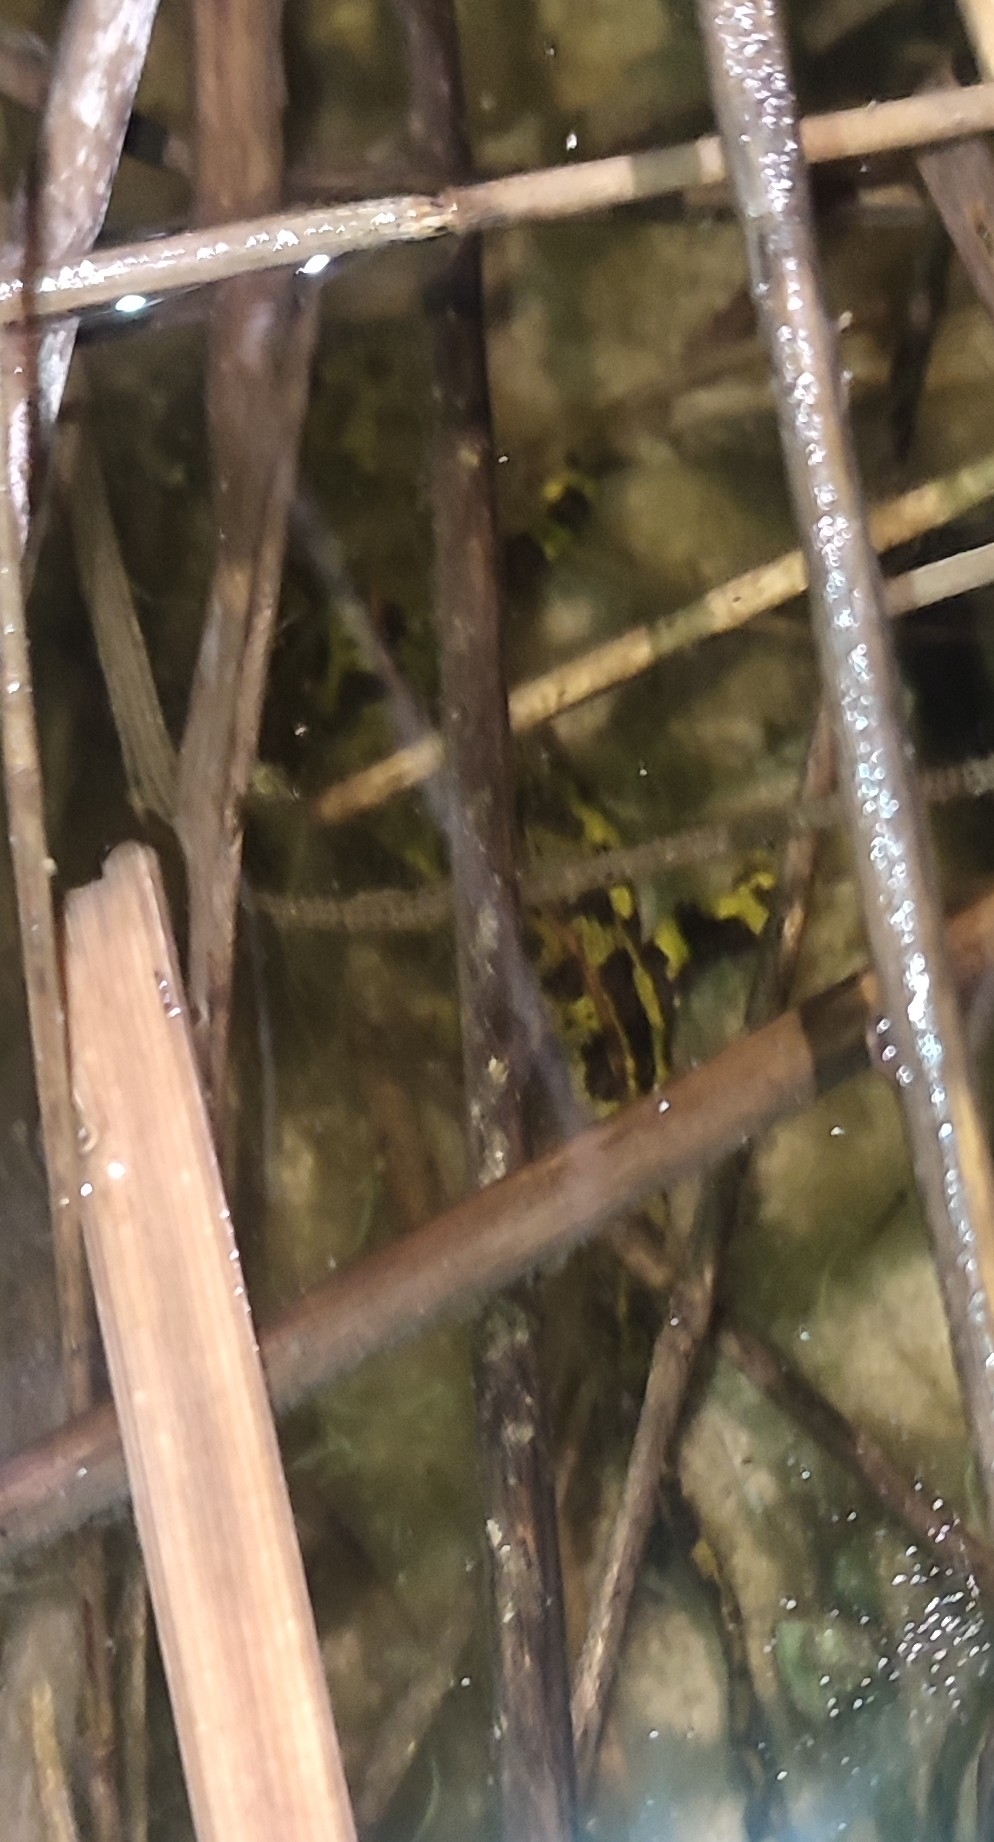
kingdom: Animalia
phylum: Chordata
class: Amphibia
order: Caudata
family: Salamandridae
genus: Triturus
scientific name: Triturus marmoratus
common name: Marbled newt
